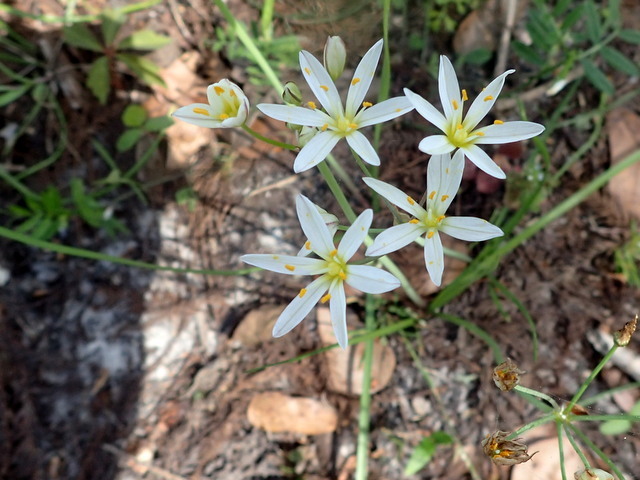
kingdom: Plantae
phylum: Tracheophyta
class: Liliopsida
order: Asparagales
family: Amaryllidaceae
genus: Nothoscordum
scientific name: Nothoscordum bivalve
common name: Crow-poison
